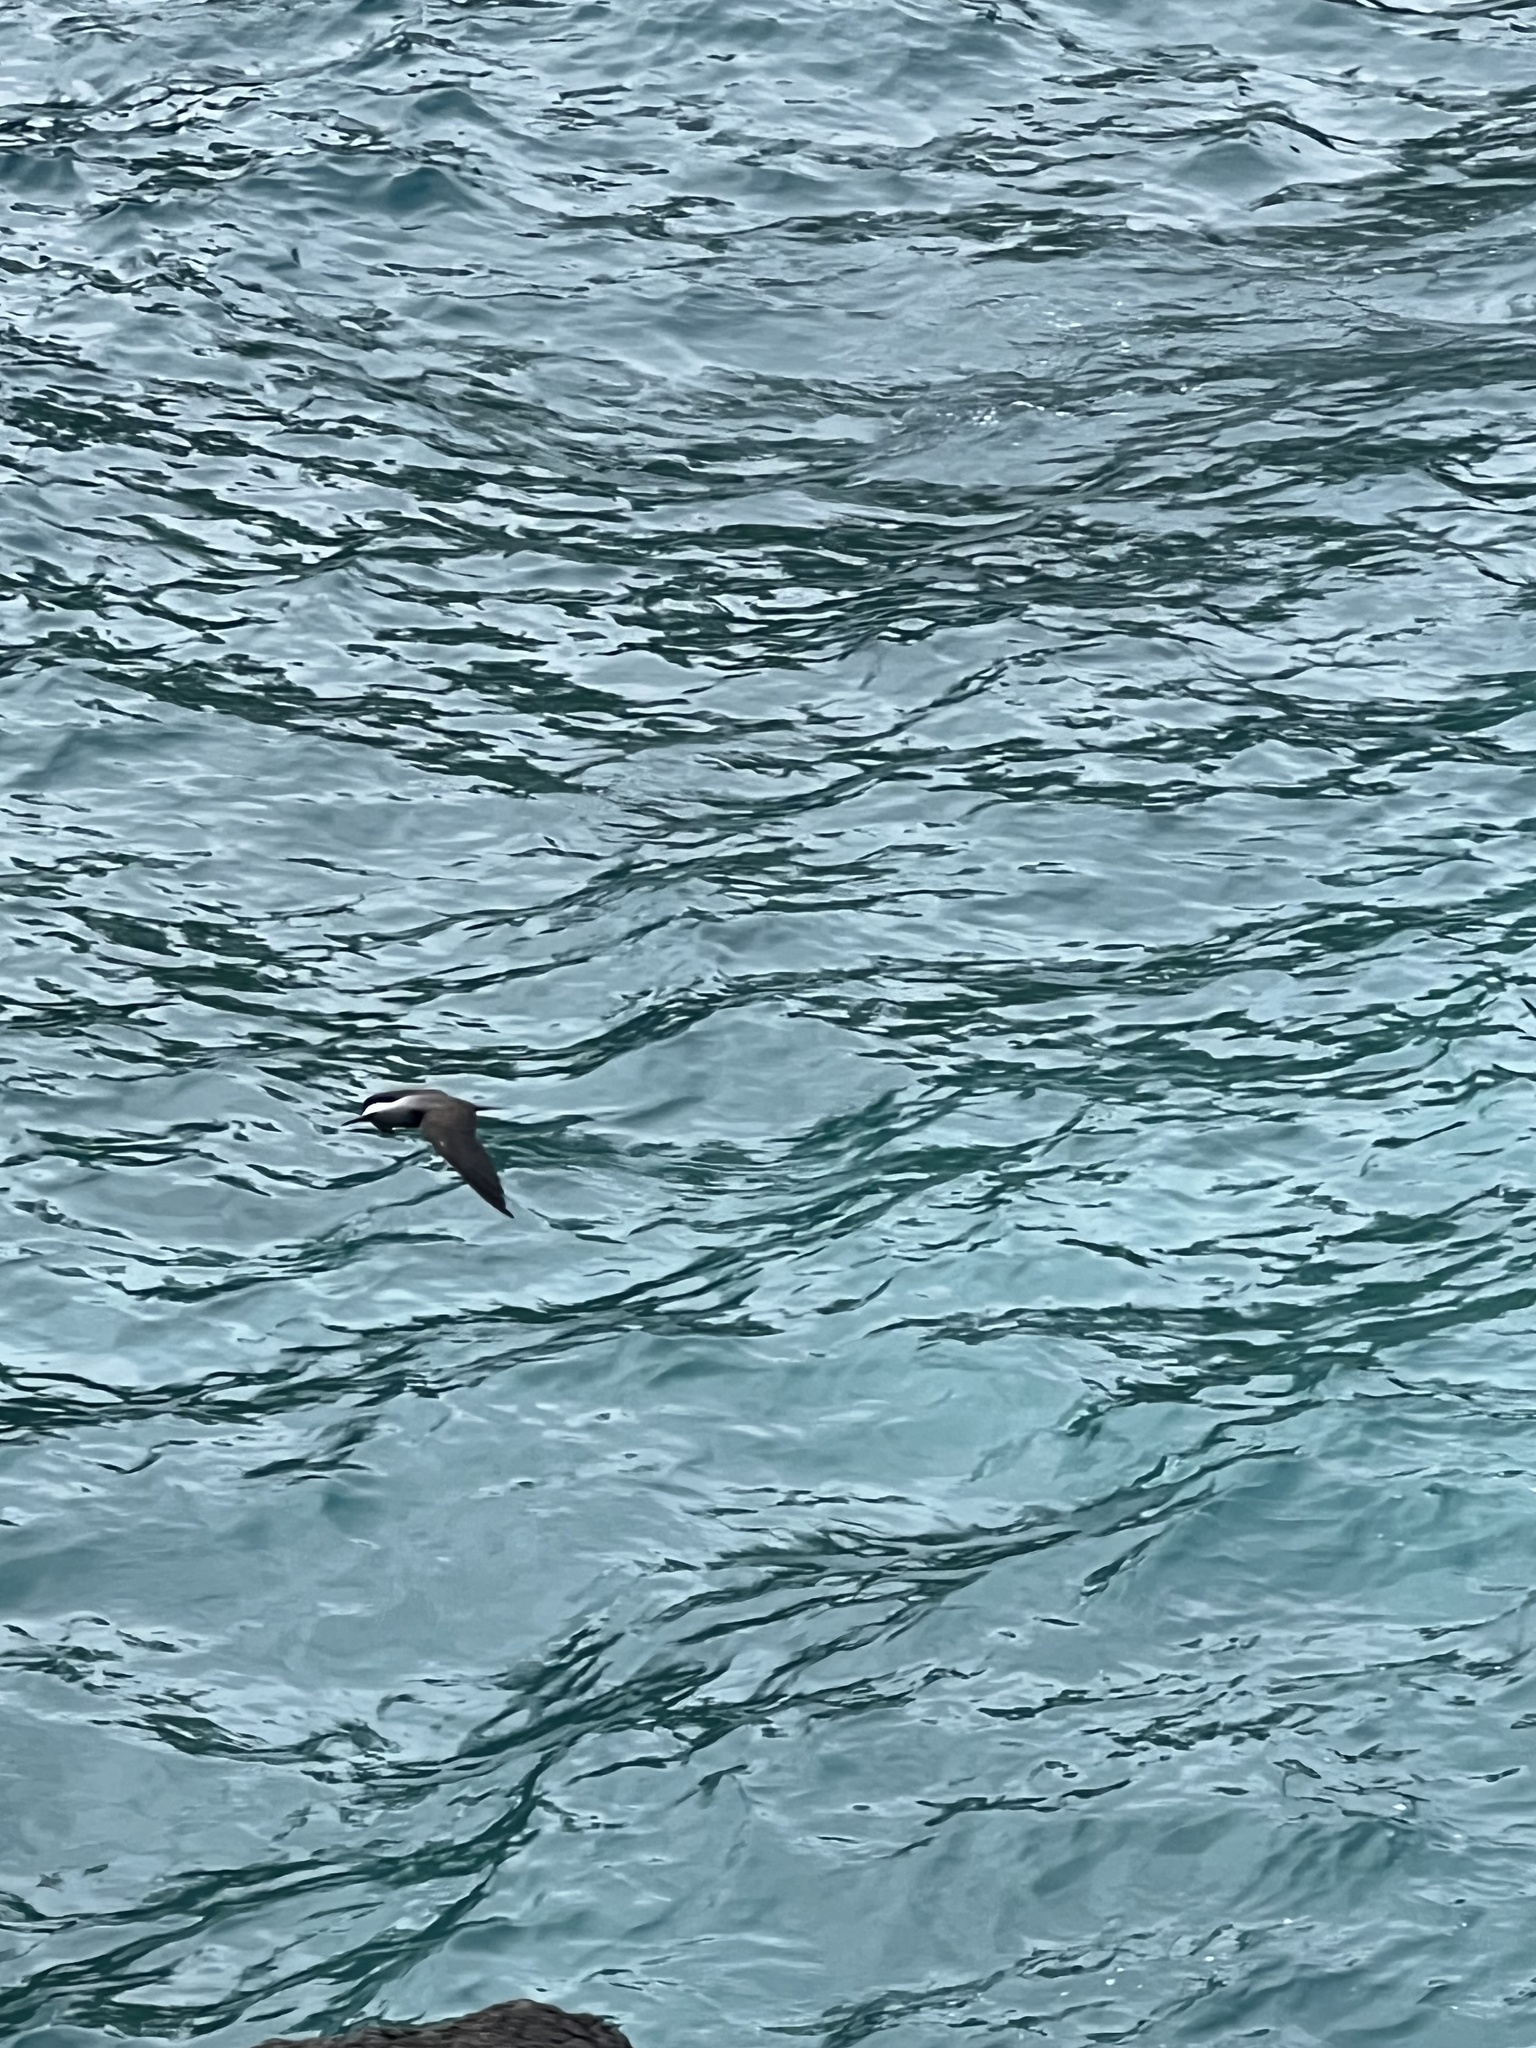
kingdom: Animalia
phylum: Chordata
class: Aves
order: Charadriiformes
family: Laridae
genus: Anous
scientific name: Anous minutus
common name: Black noddy
